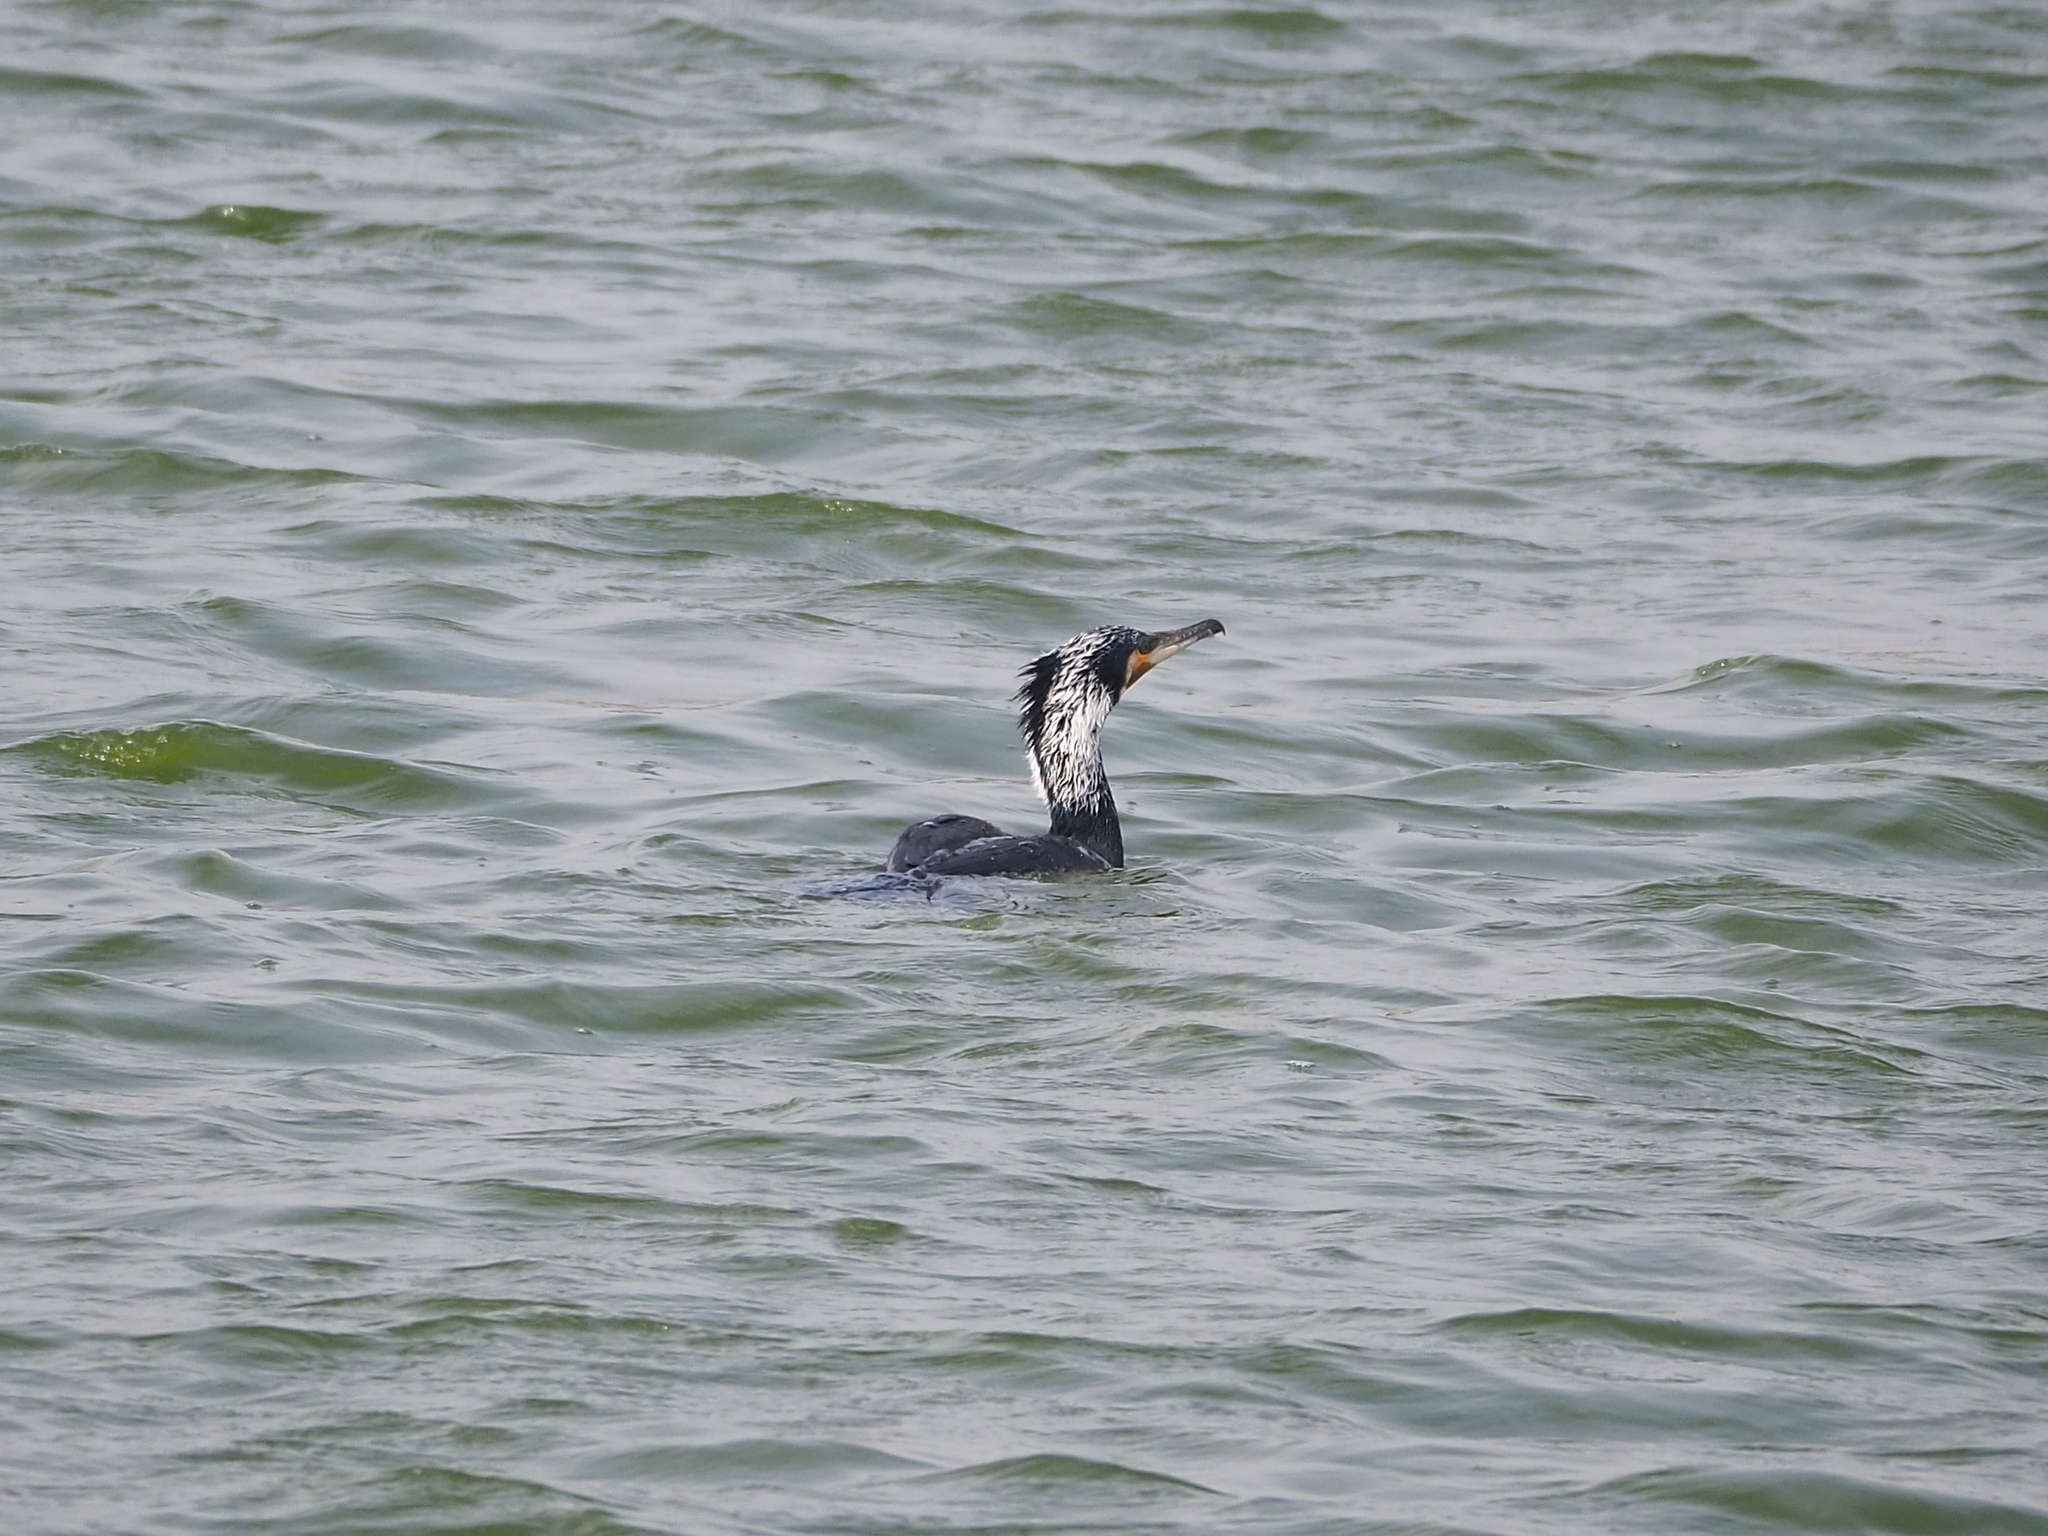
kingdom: Animalia
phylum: Chordata
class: Aves
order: Suliformes
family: Phalacrocoracidae
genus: Phalacrocorax
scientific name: Phalacrocorax carbo
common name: Great cormorant
